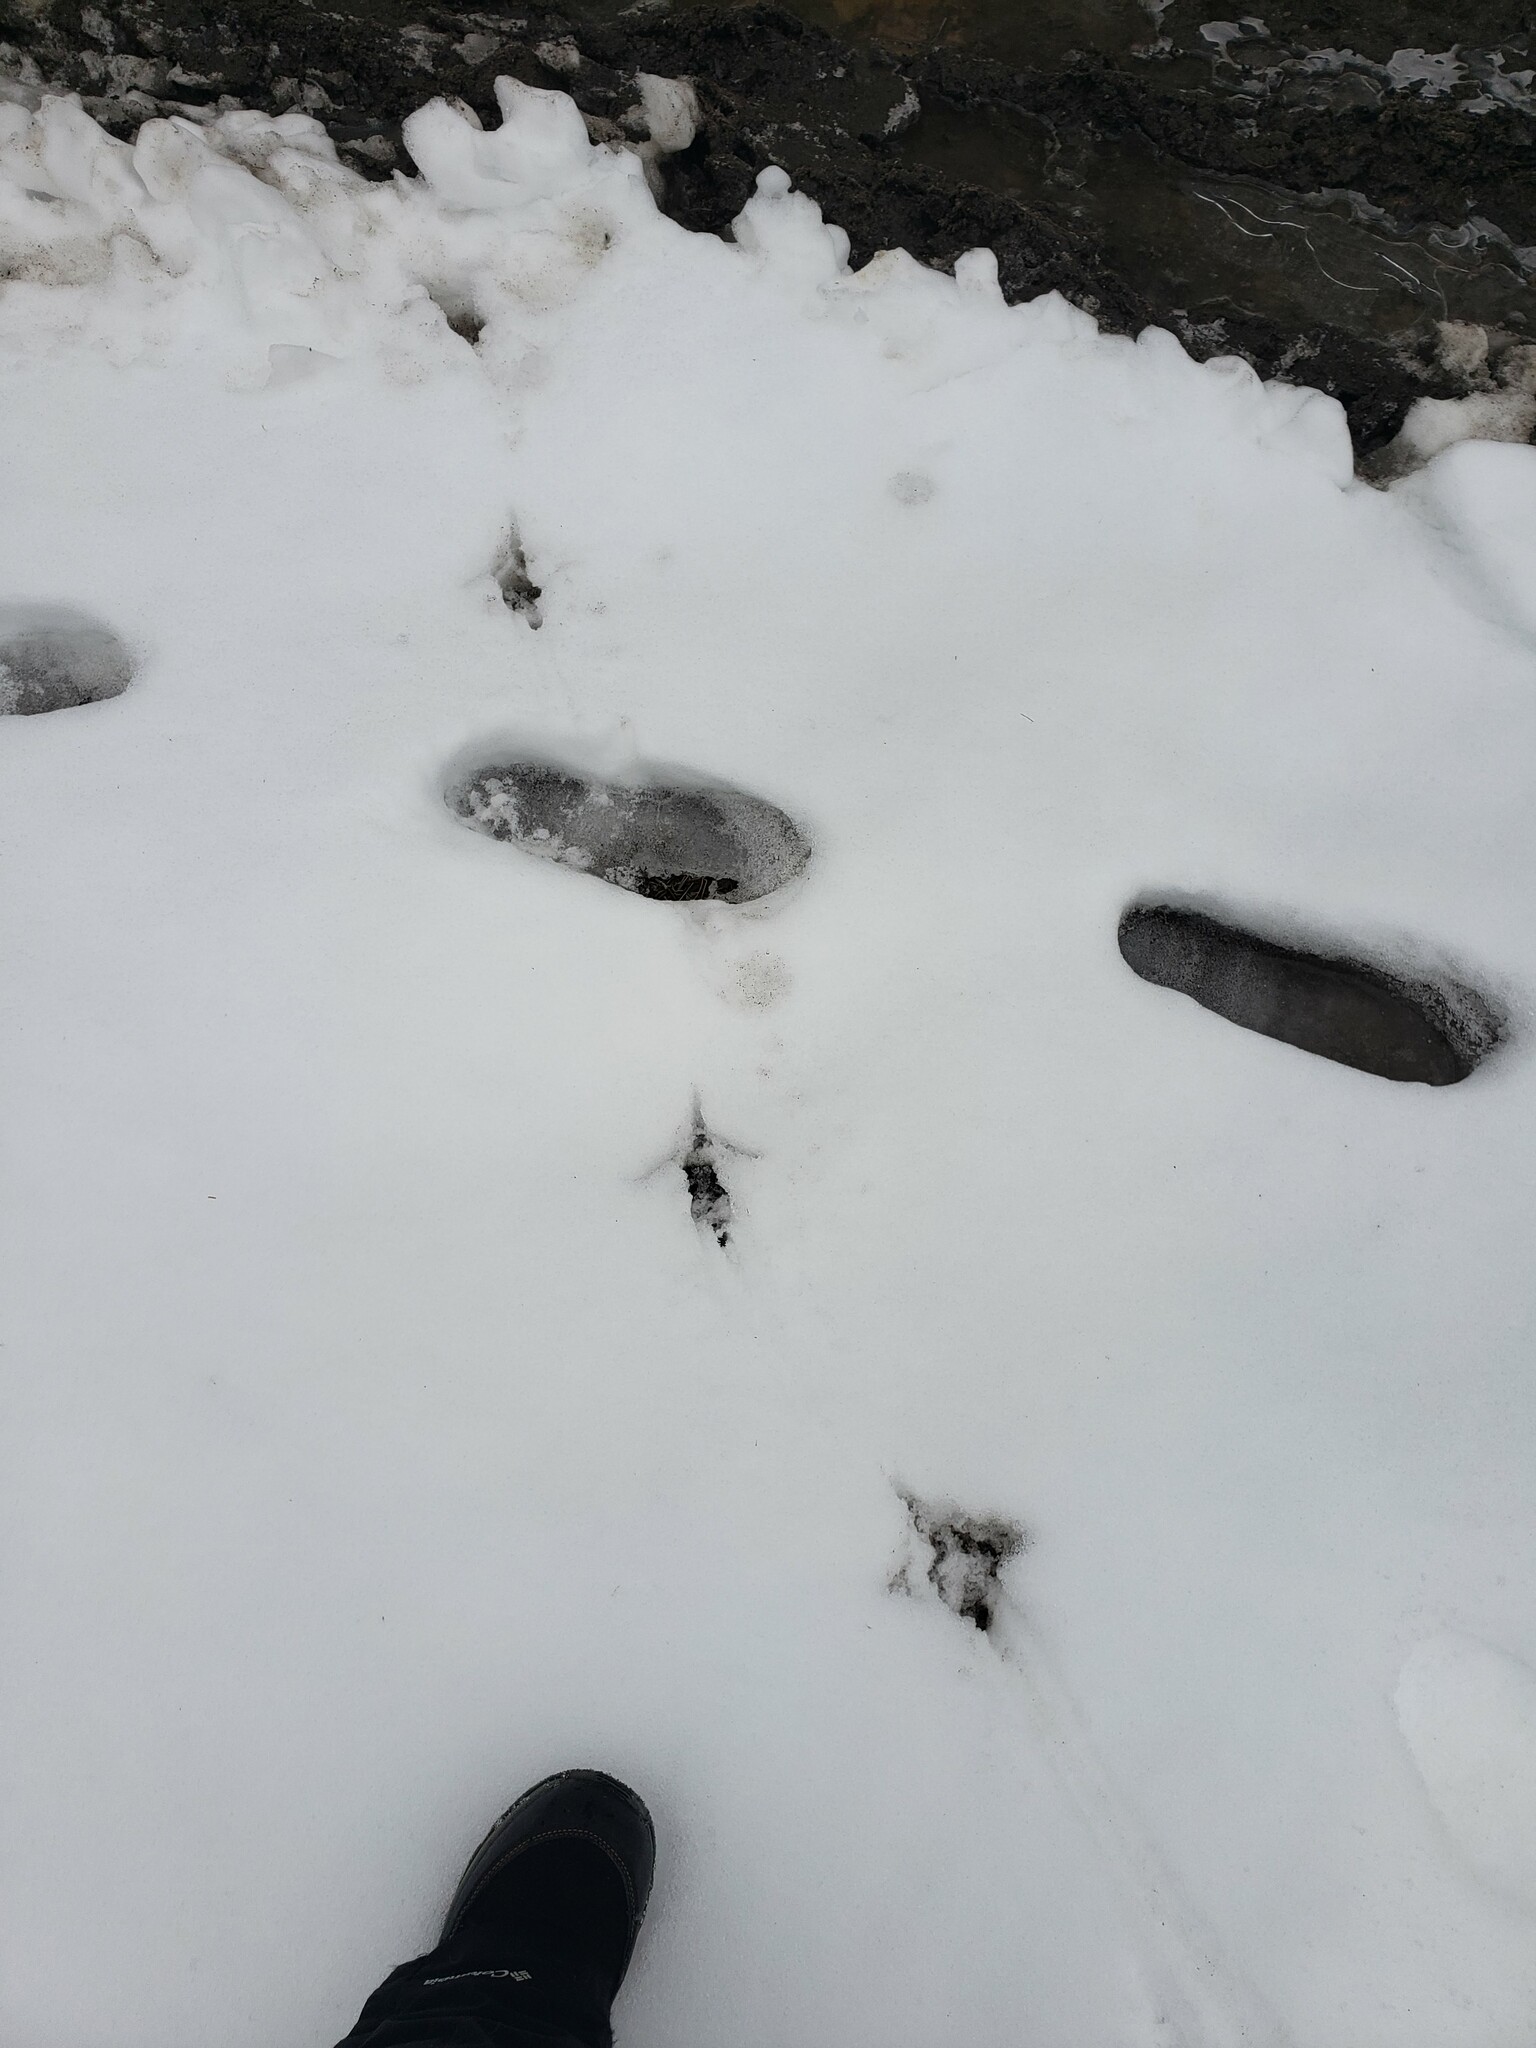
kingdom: Animalia
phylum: Chordata
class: Aves
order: Galliformes
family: Phasianidae
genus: Meleagris
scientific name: Meleagris gallopavo
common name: Wild turkey
